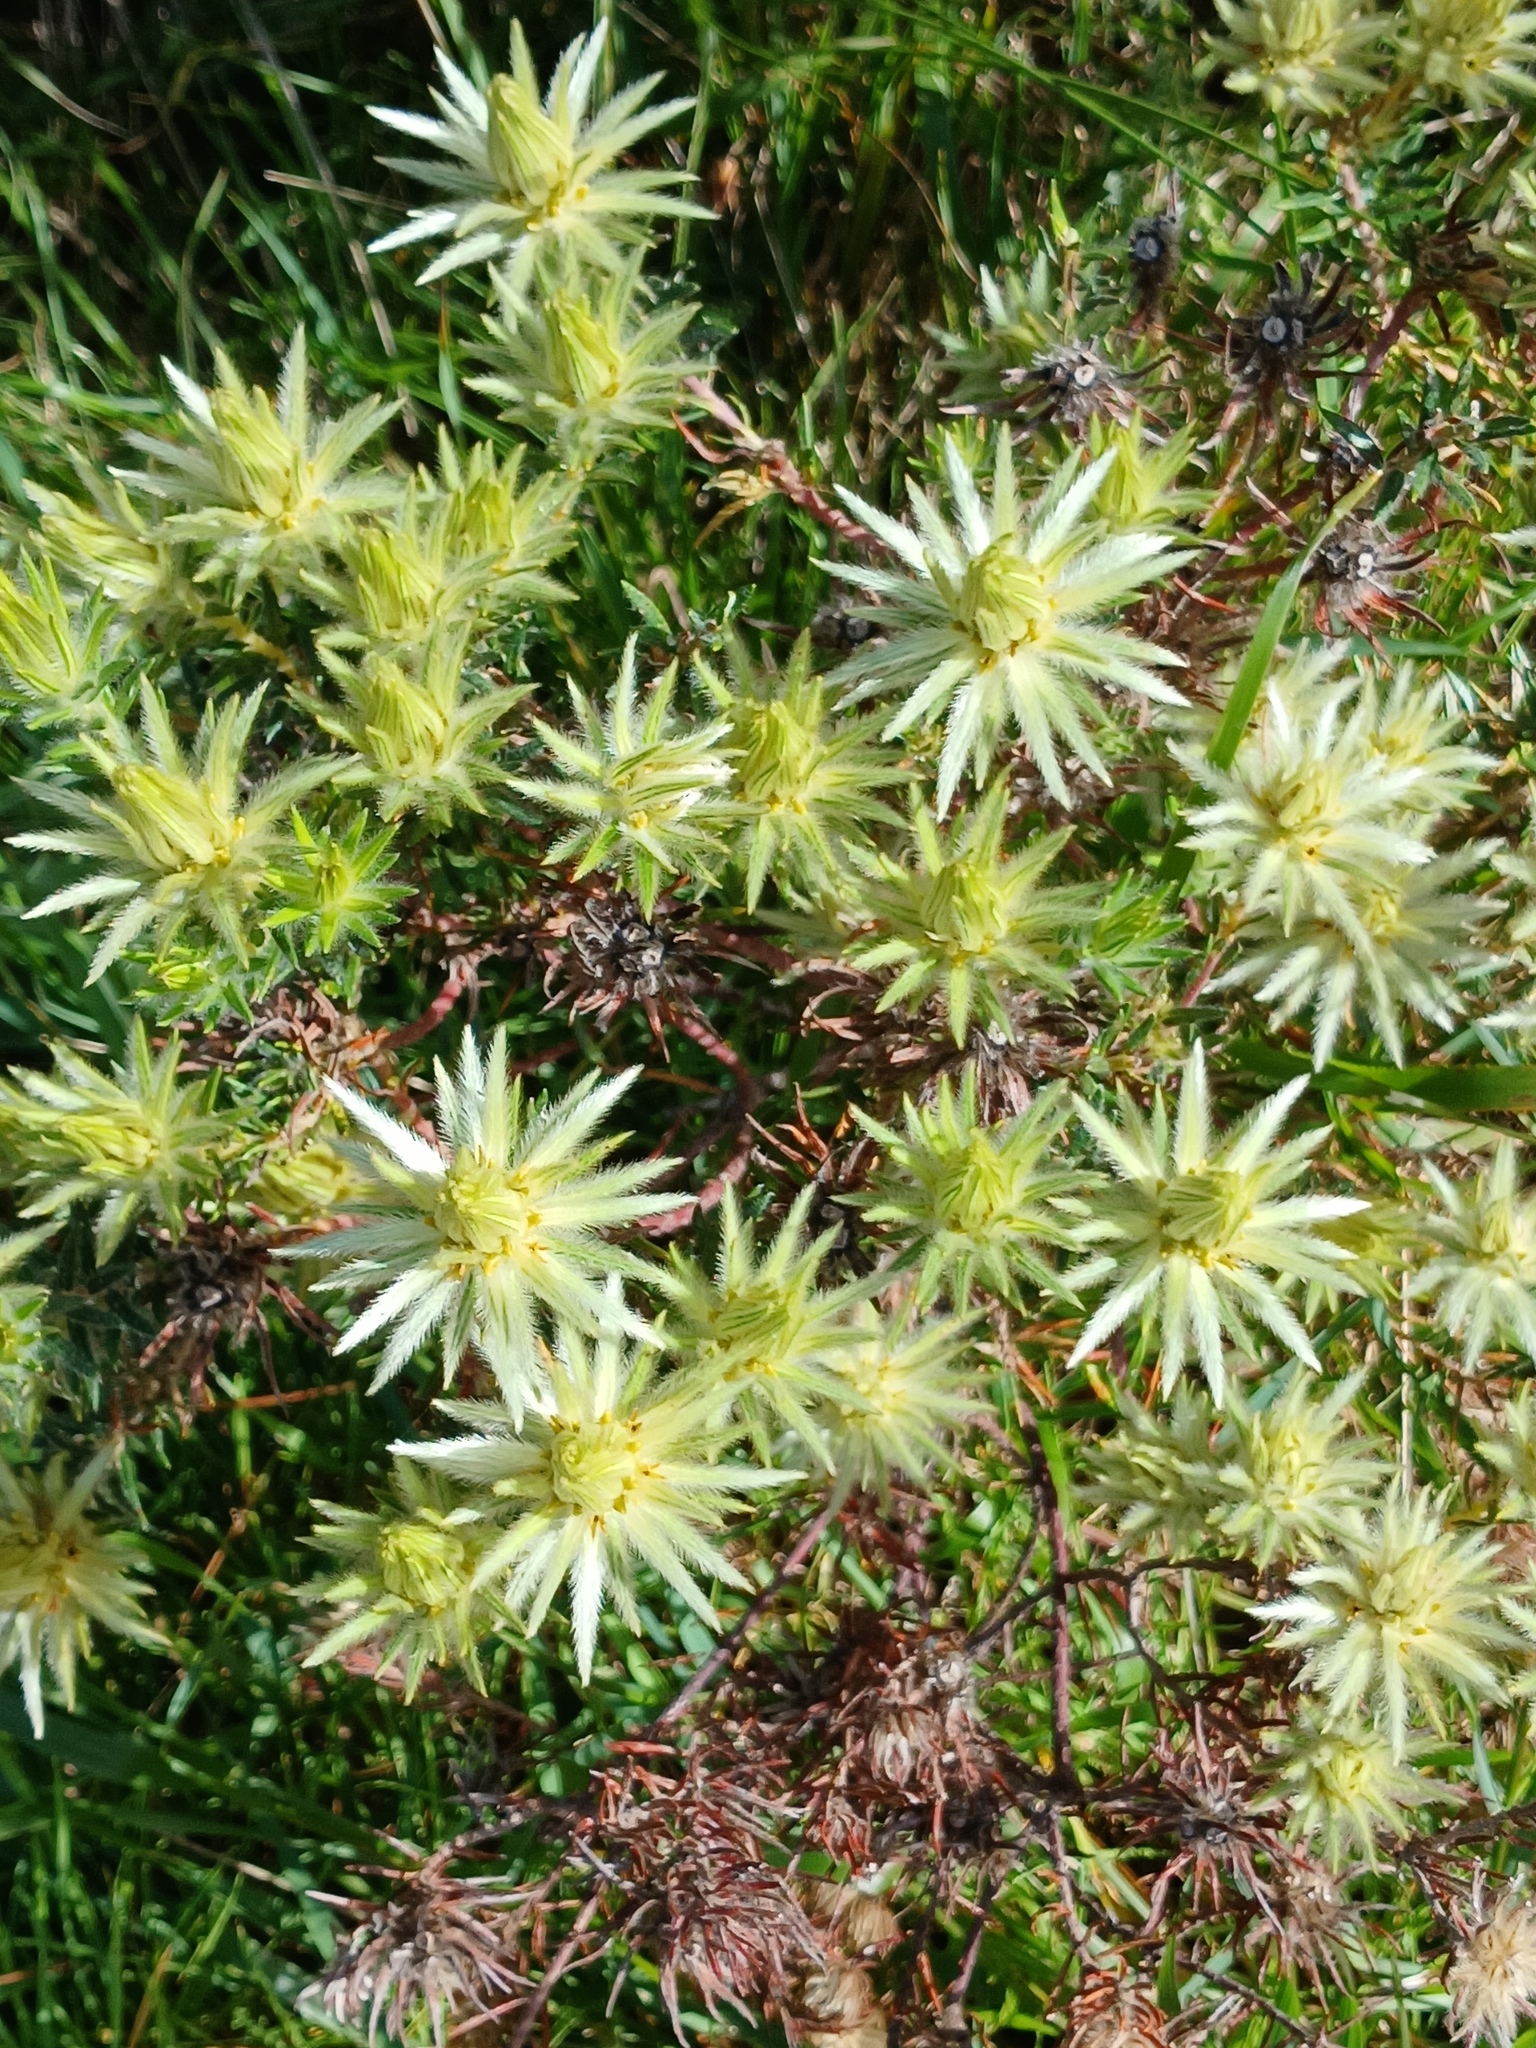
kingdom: Plantae
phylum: Tracheophyta
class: Magnoliopsida
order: Rosales
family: Rhamnaceae
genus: Phylica
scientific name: Phylica plumosa
